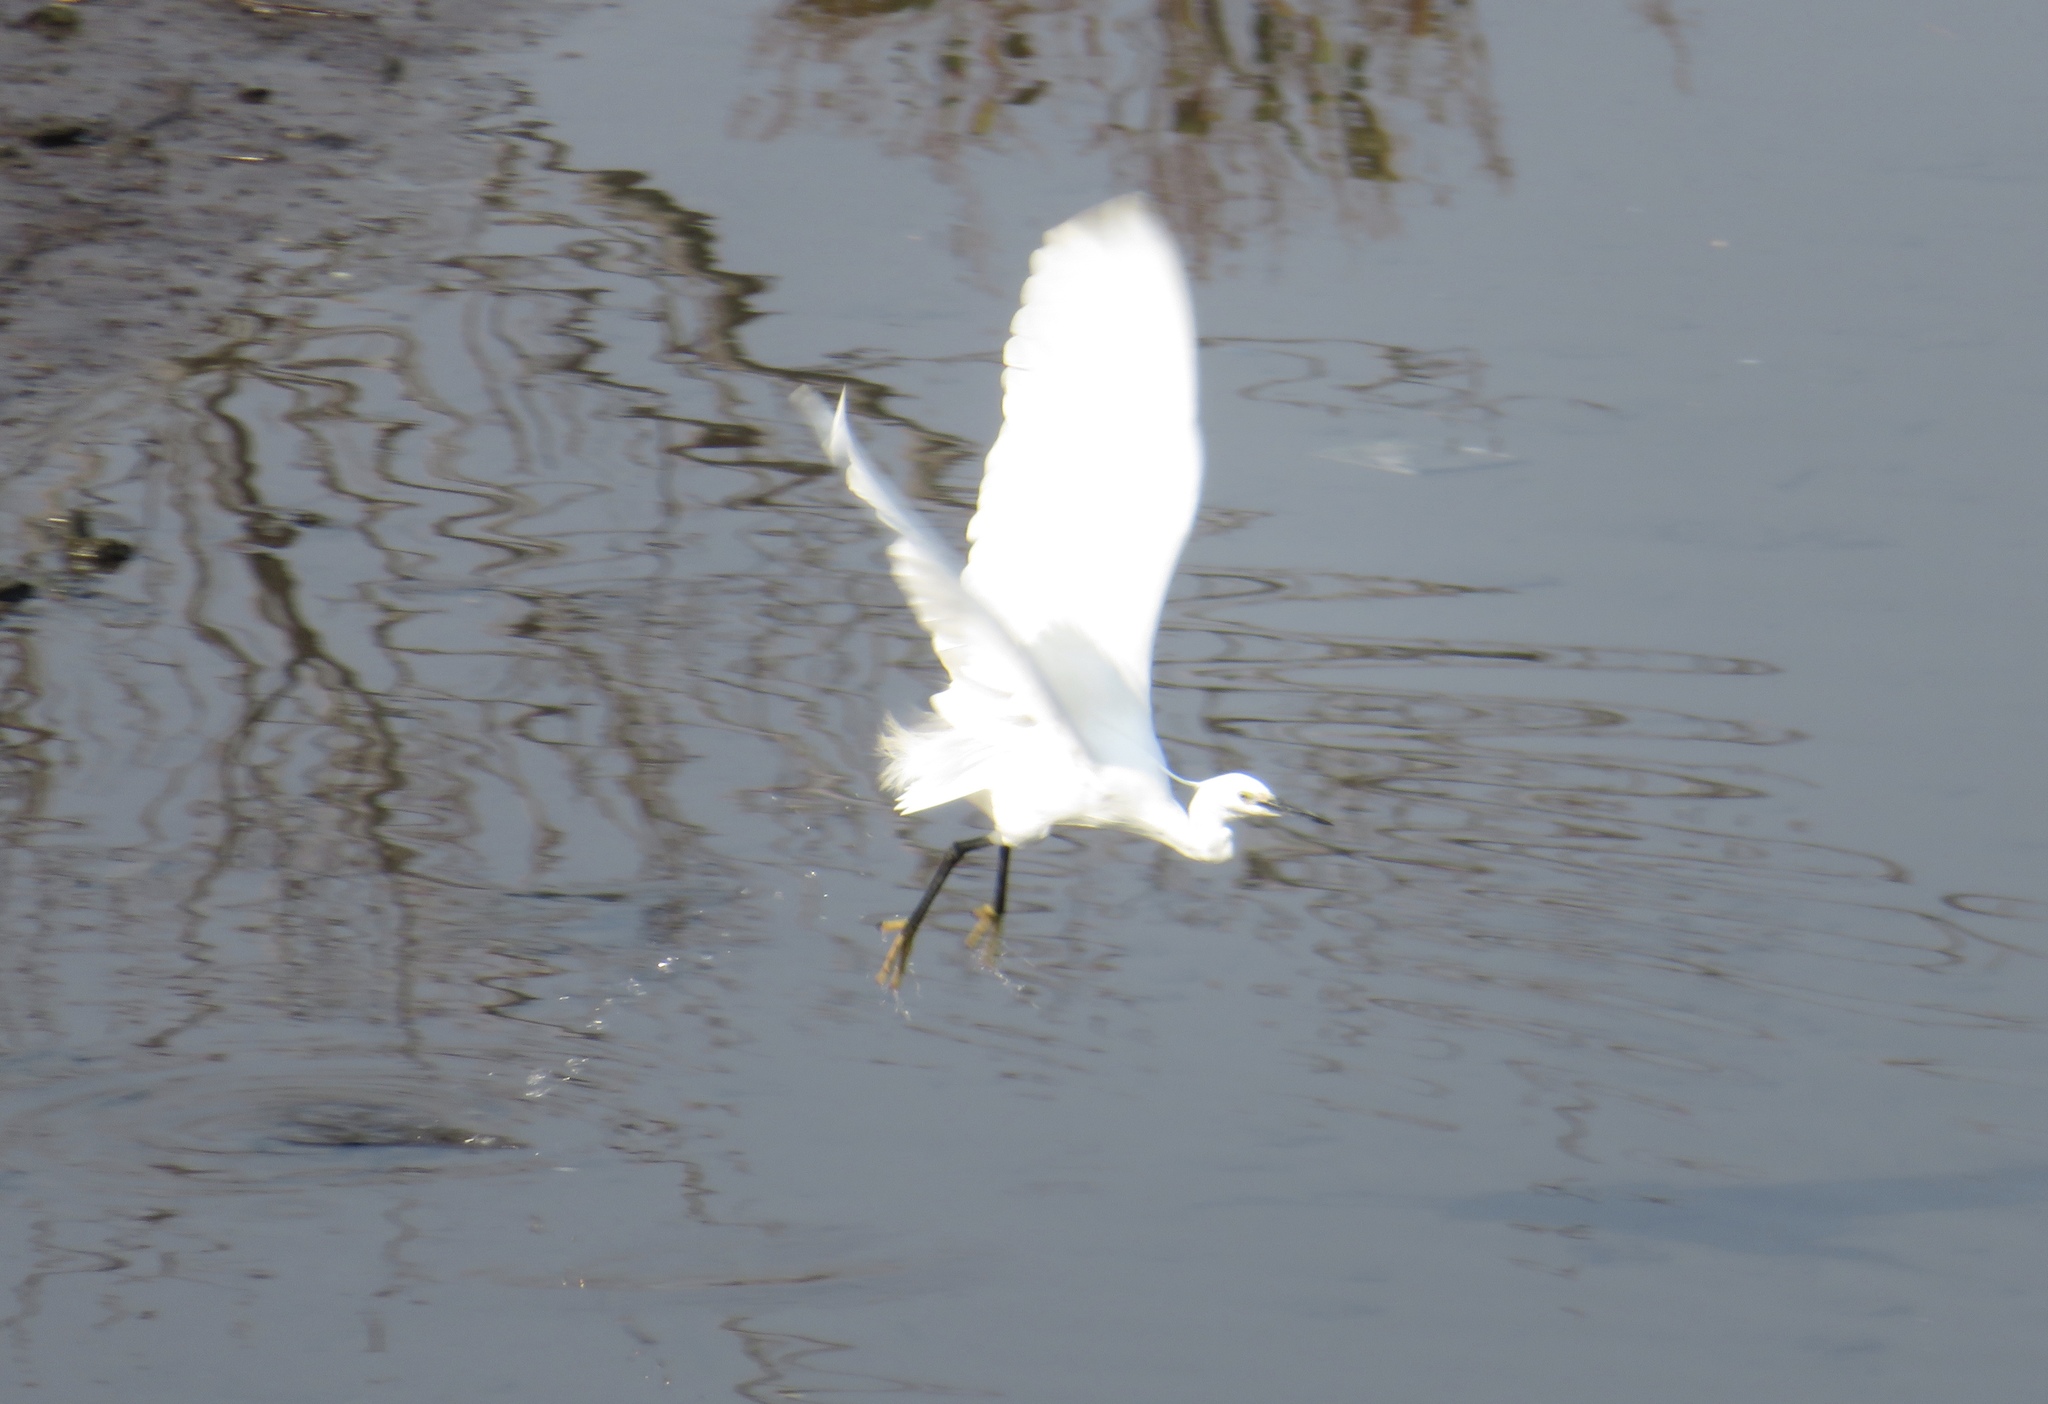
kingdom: Animalia
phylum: Chordata
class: Aves
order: Pelecaniformes
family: Ardeidae
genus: Egretta
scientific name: Egretta garzetta
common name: Little egret
